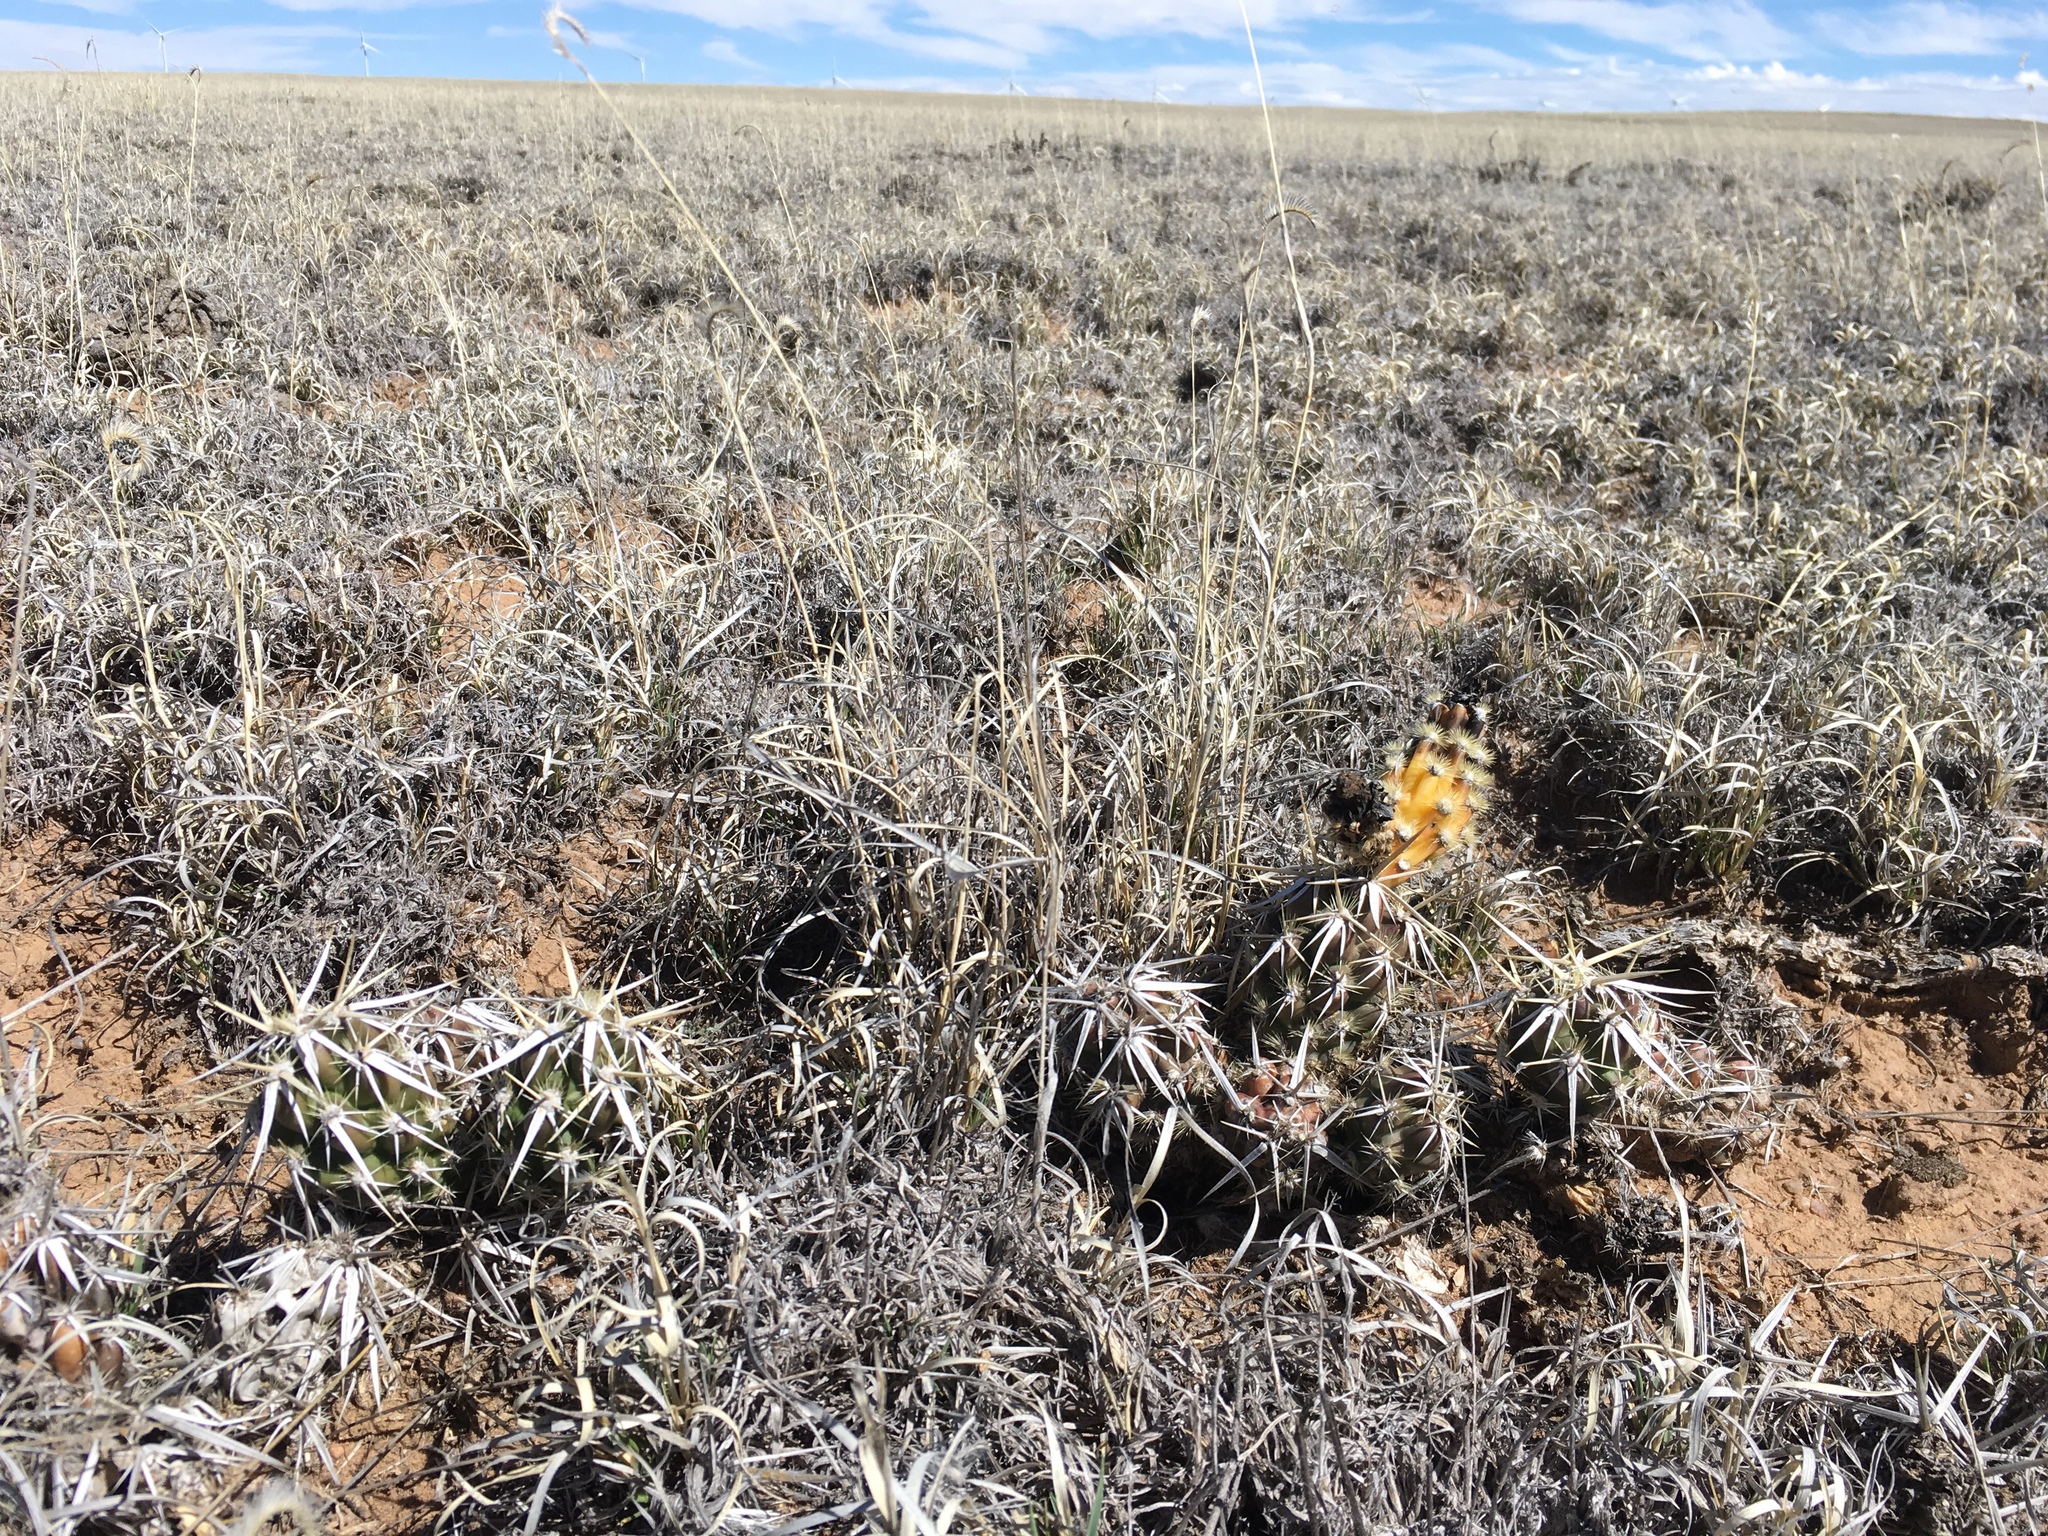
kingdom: Plantae
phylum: Tracheophyta
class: Magnoliopsida
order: Caryophyllales
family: Cactaceae
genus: Grusonia
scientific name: Grusonia clavata
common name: Club cholla
